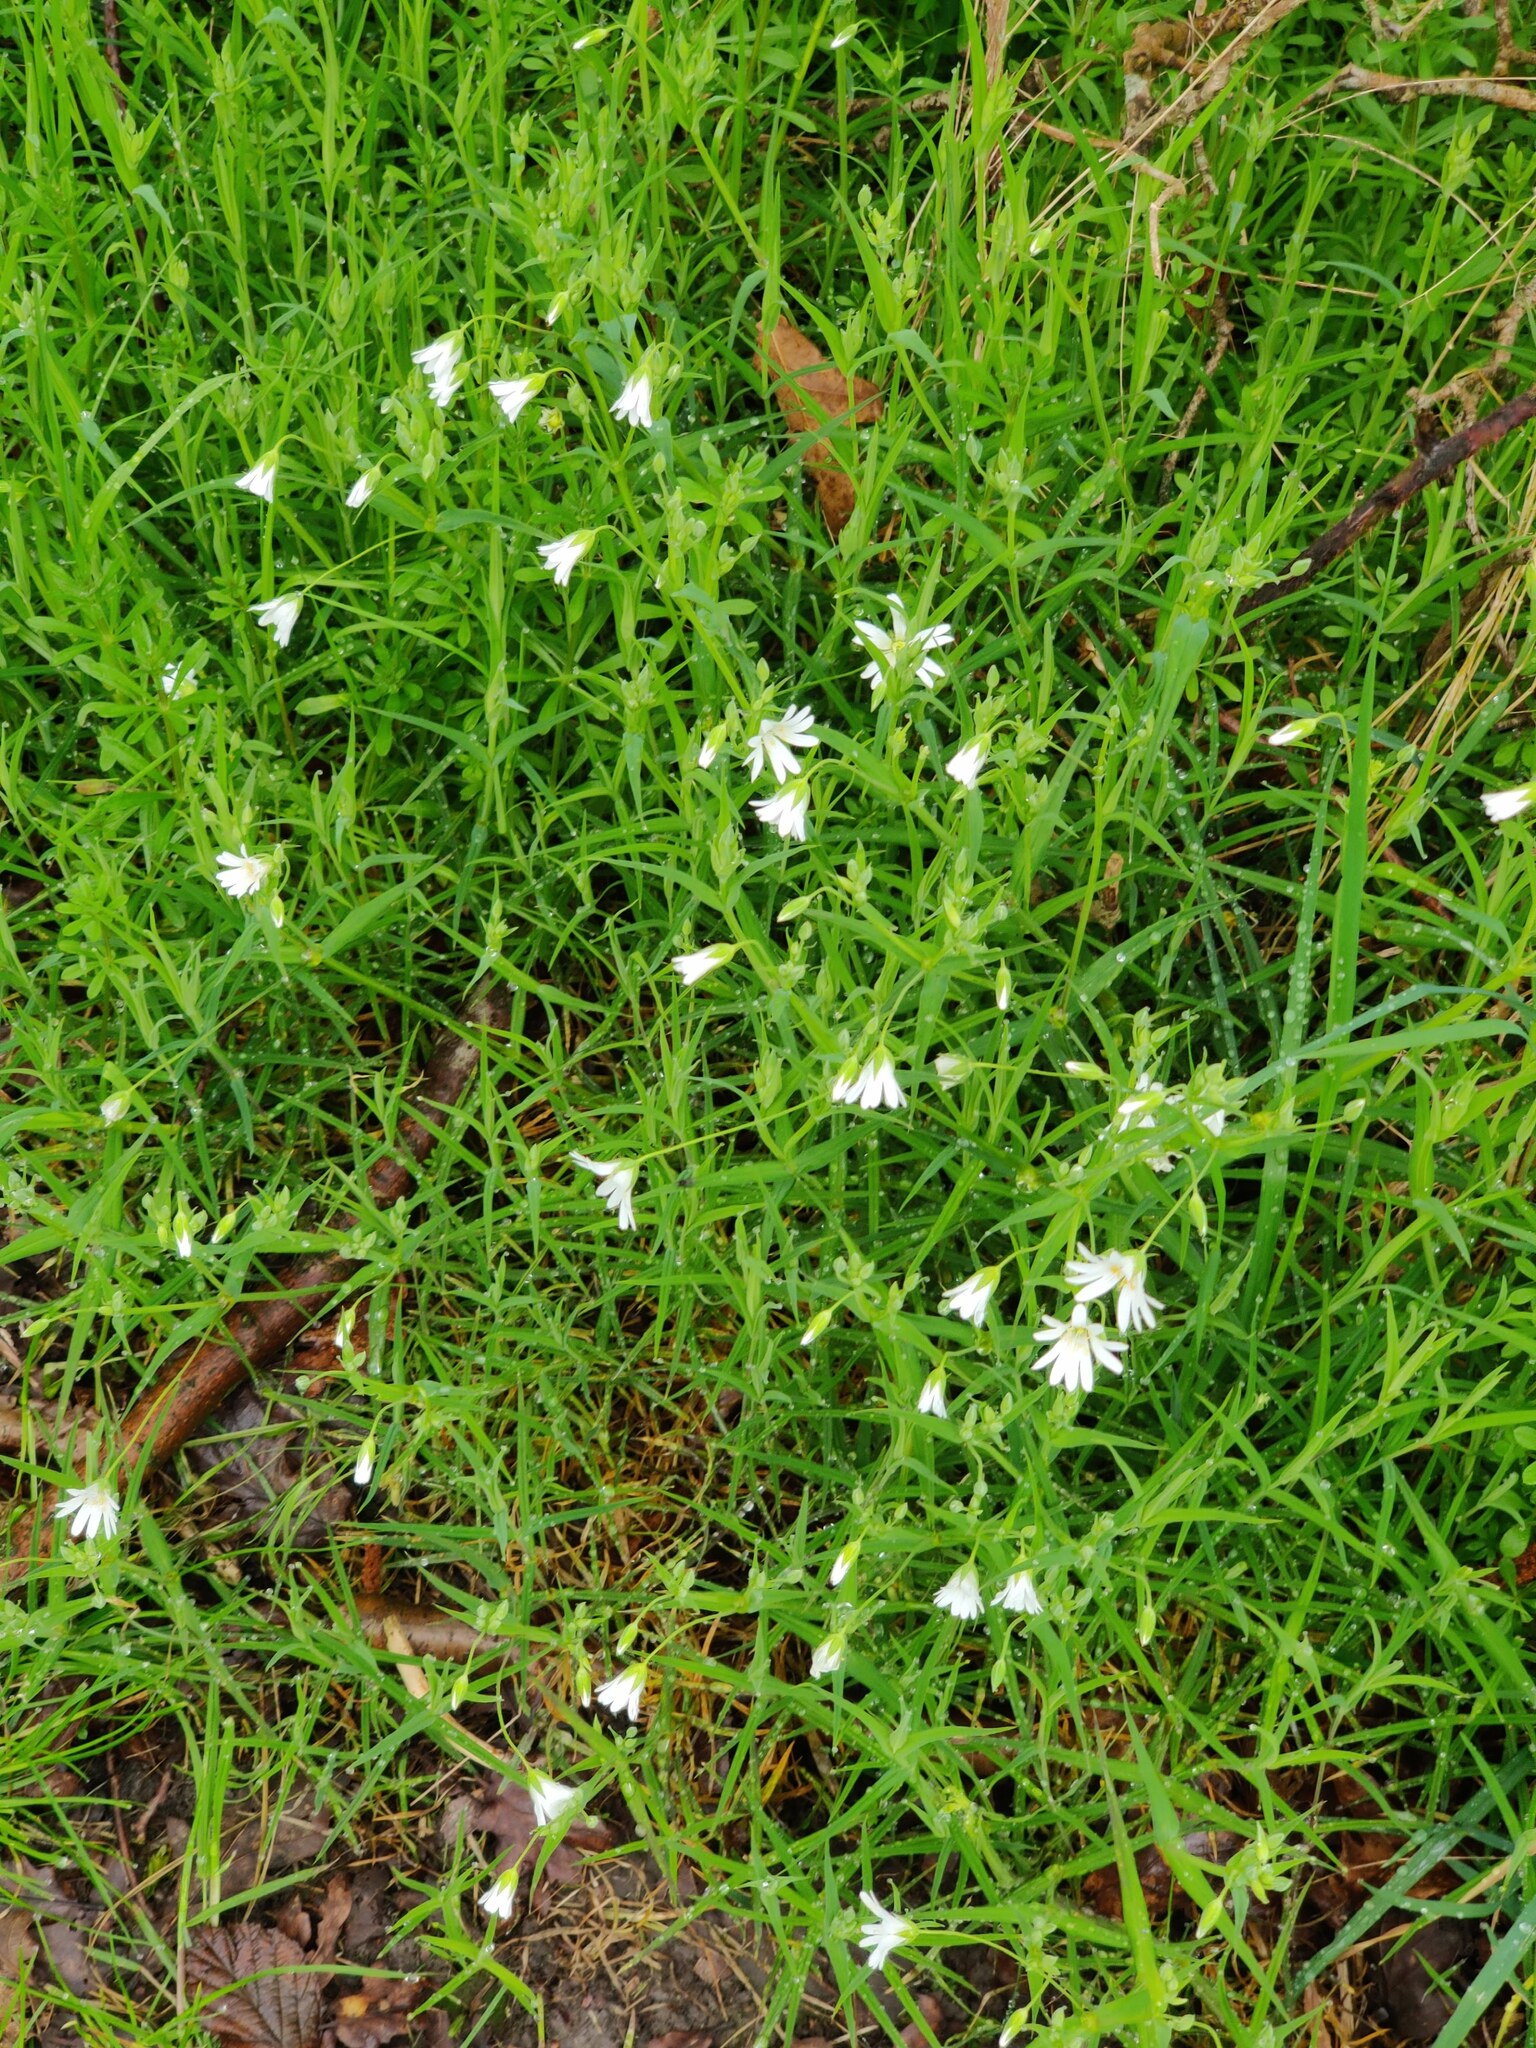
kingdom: Plantae
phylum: Tracheophyta
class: Magnoliopsida
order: Caryophyllales
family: Caryophyllaceae
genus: Rabelera
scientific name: Rabelera holostea
